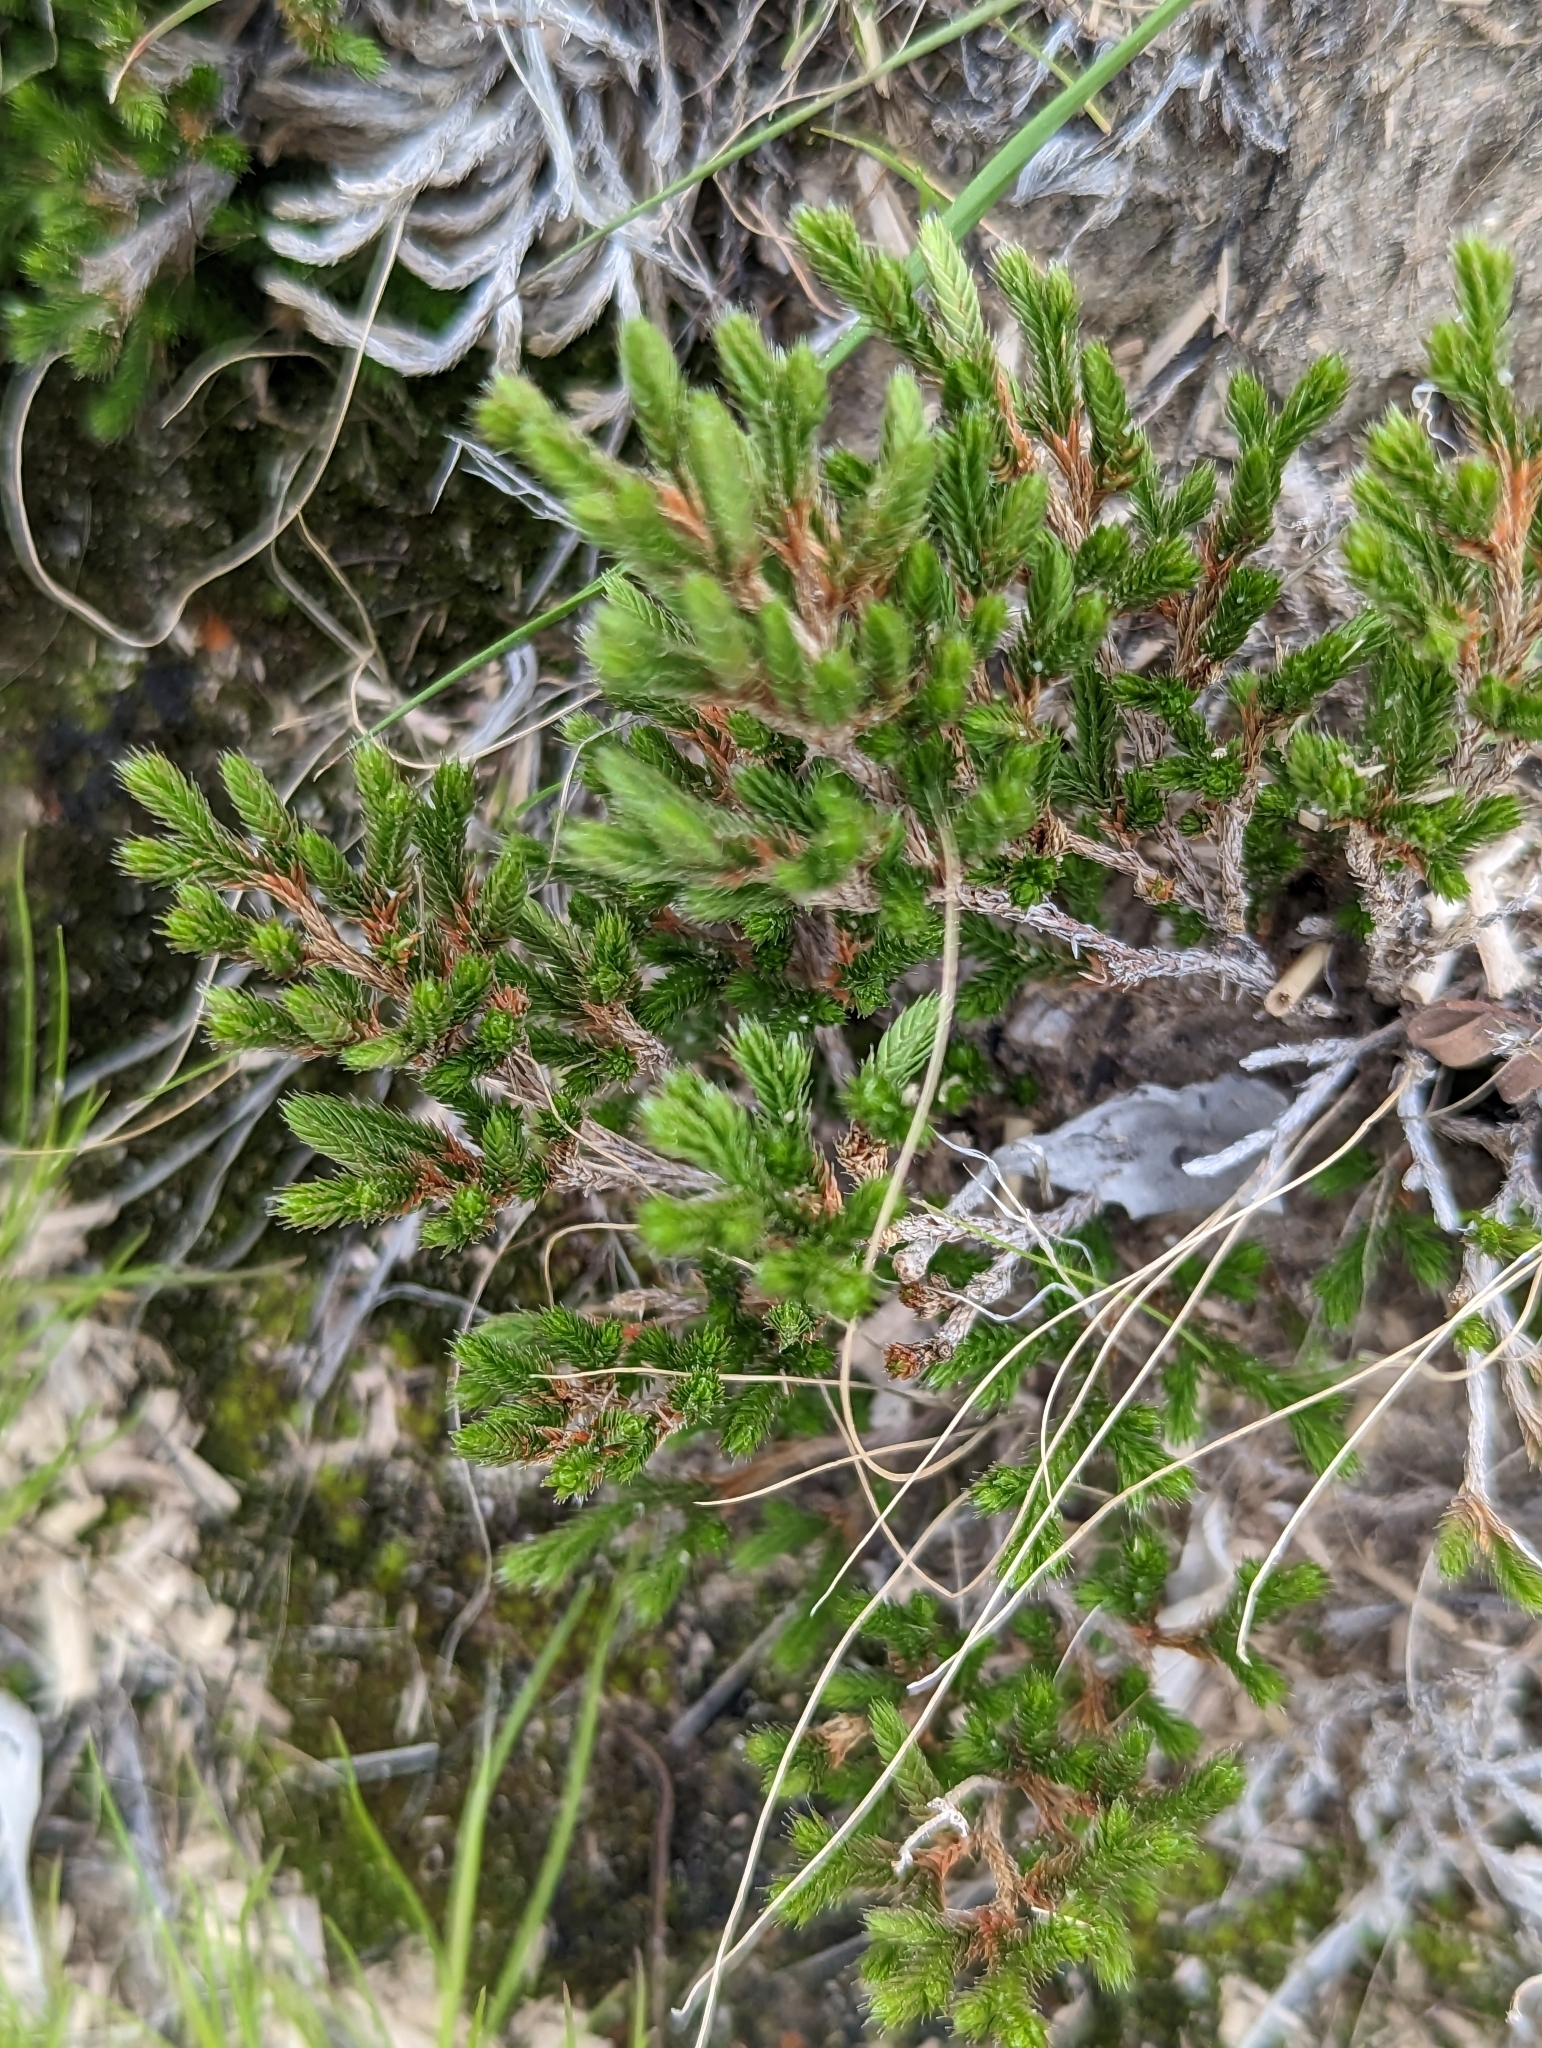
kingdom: Plantae
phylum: Tracheophyta
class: Lycopodiopsida
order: Selaginellales
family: Selaginellaceae
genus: Selaginella
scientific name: Selaginella bigelovii
